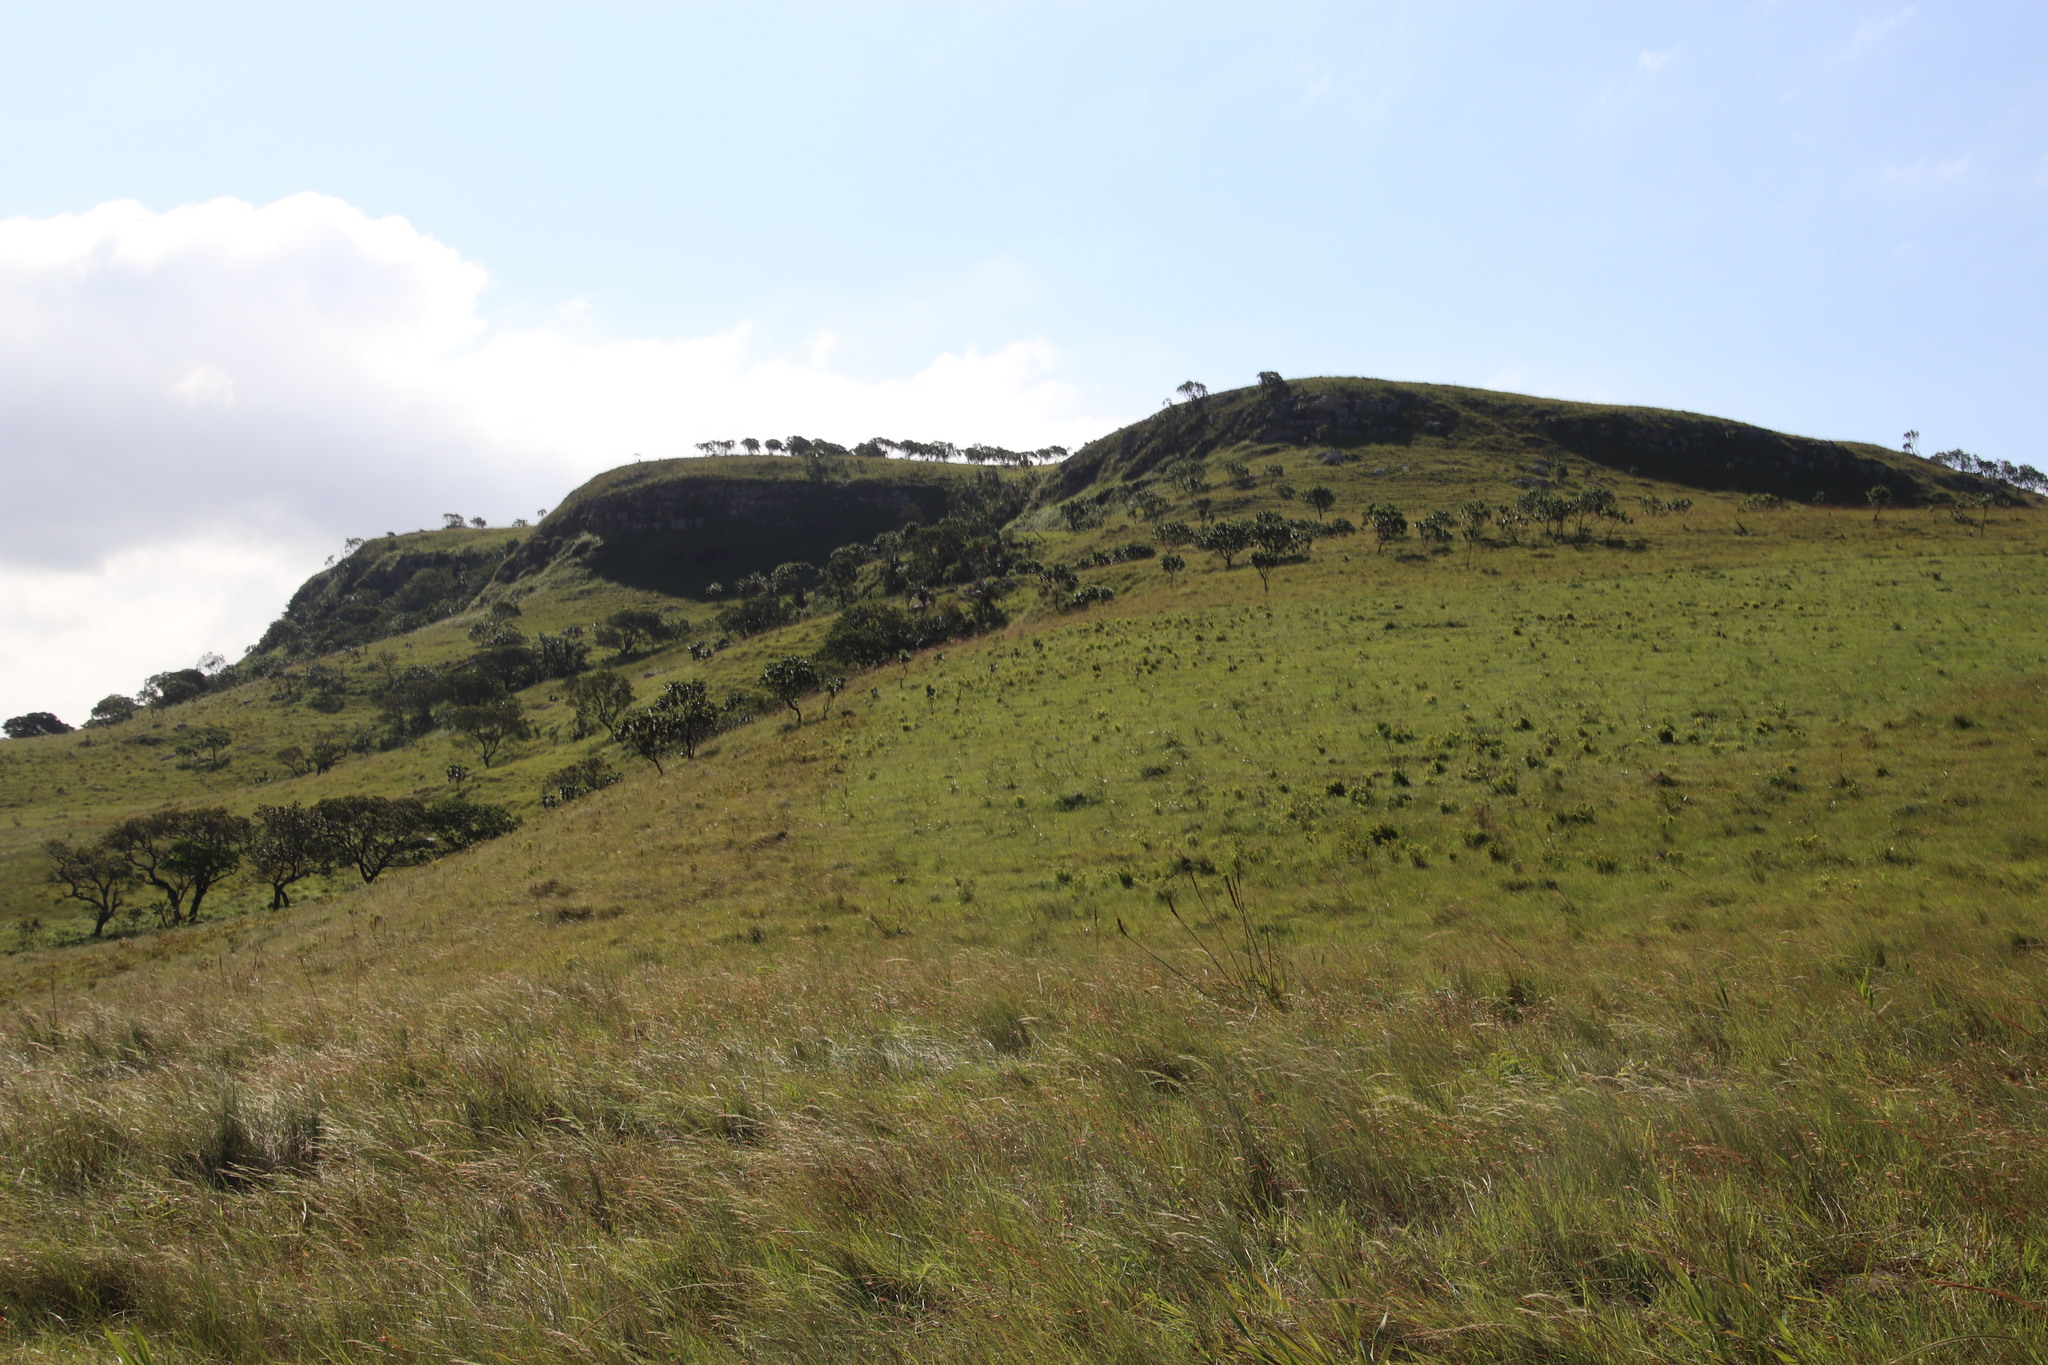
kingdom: Plantae
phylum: Tracheophyta
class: Magnoliopsida
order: Proteales
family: Proteaceae
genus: Leucadendron
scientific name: Leucadendron spissifolium
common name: Spear-leaf conebush
